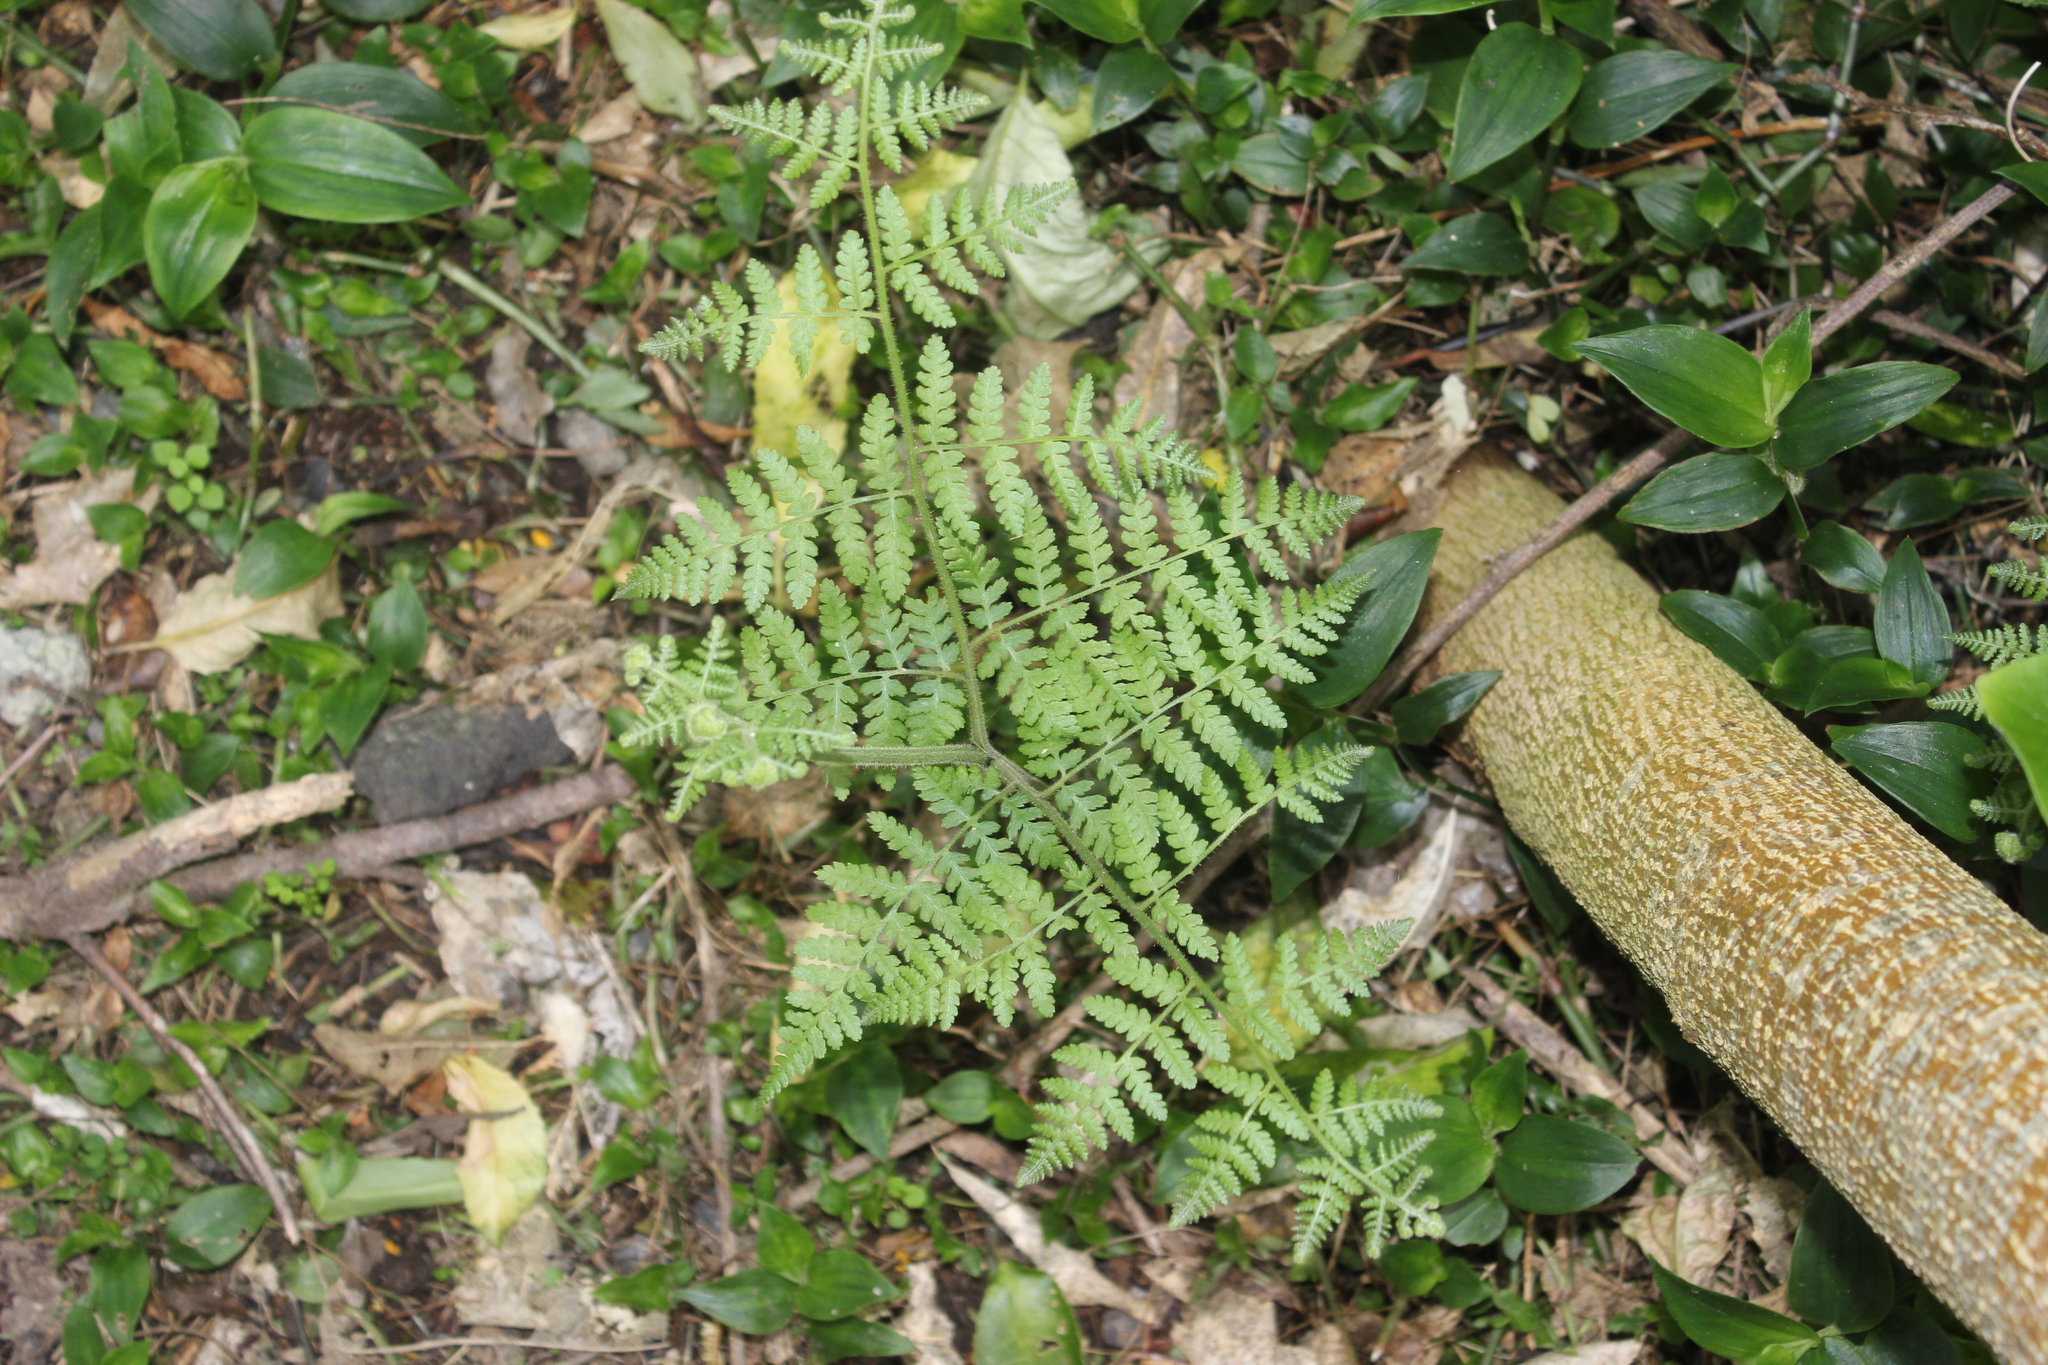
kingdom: Plantae
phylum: Tracheophyta
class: Polypodiopsida
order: Polypodiales
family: Dennstaedtiaceae
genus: Hypolepis
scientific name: Hypolepis ambigua
